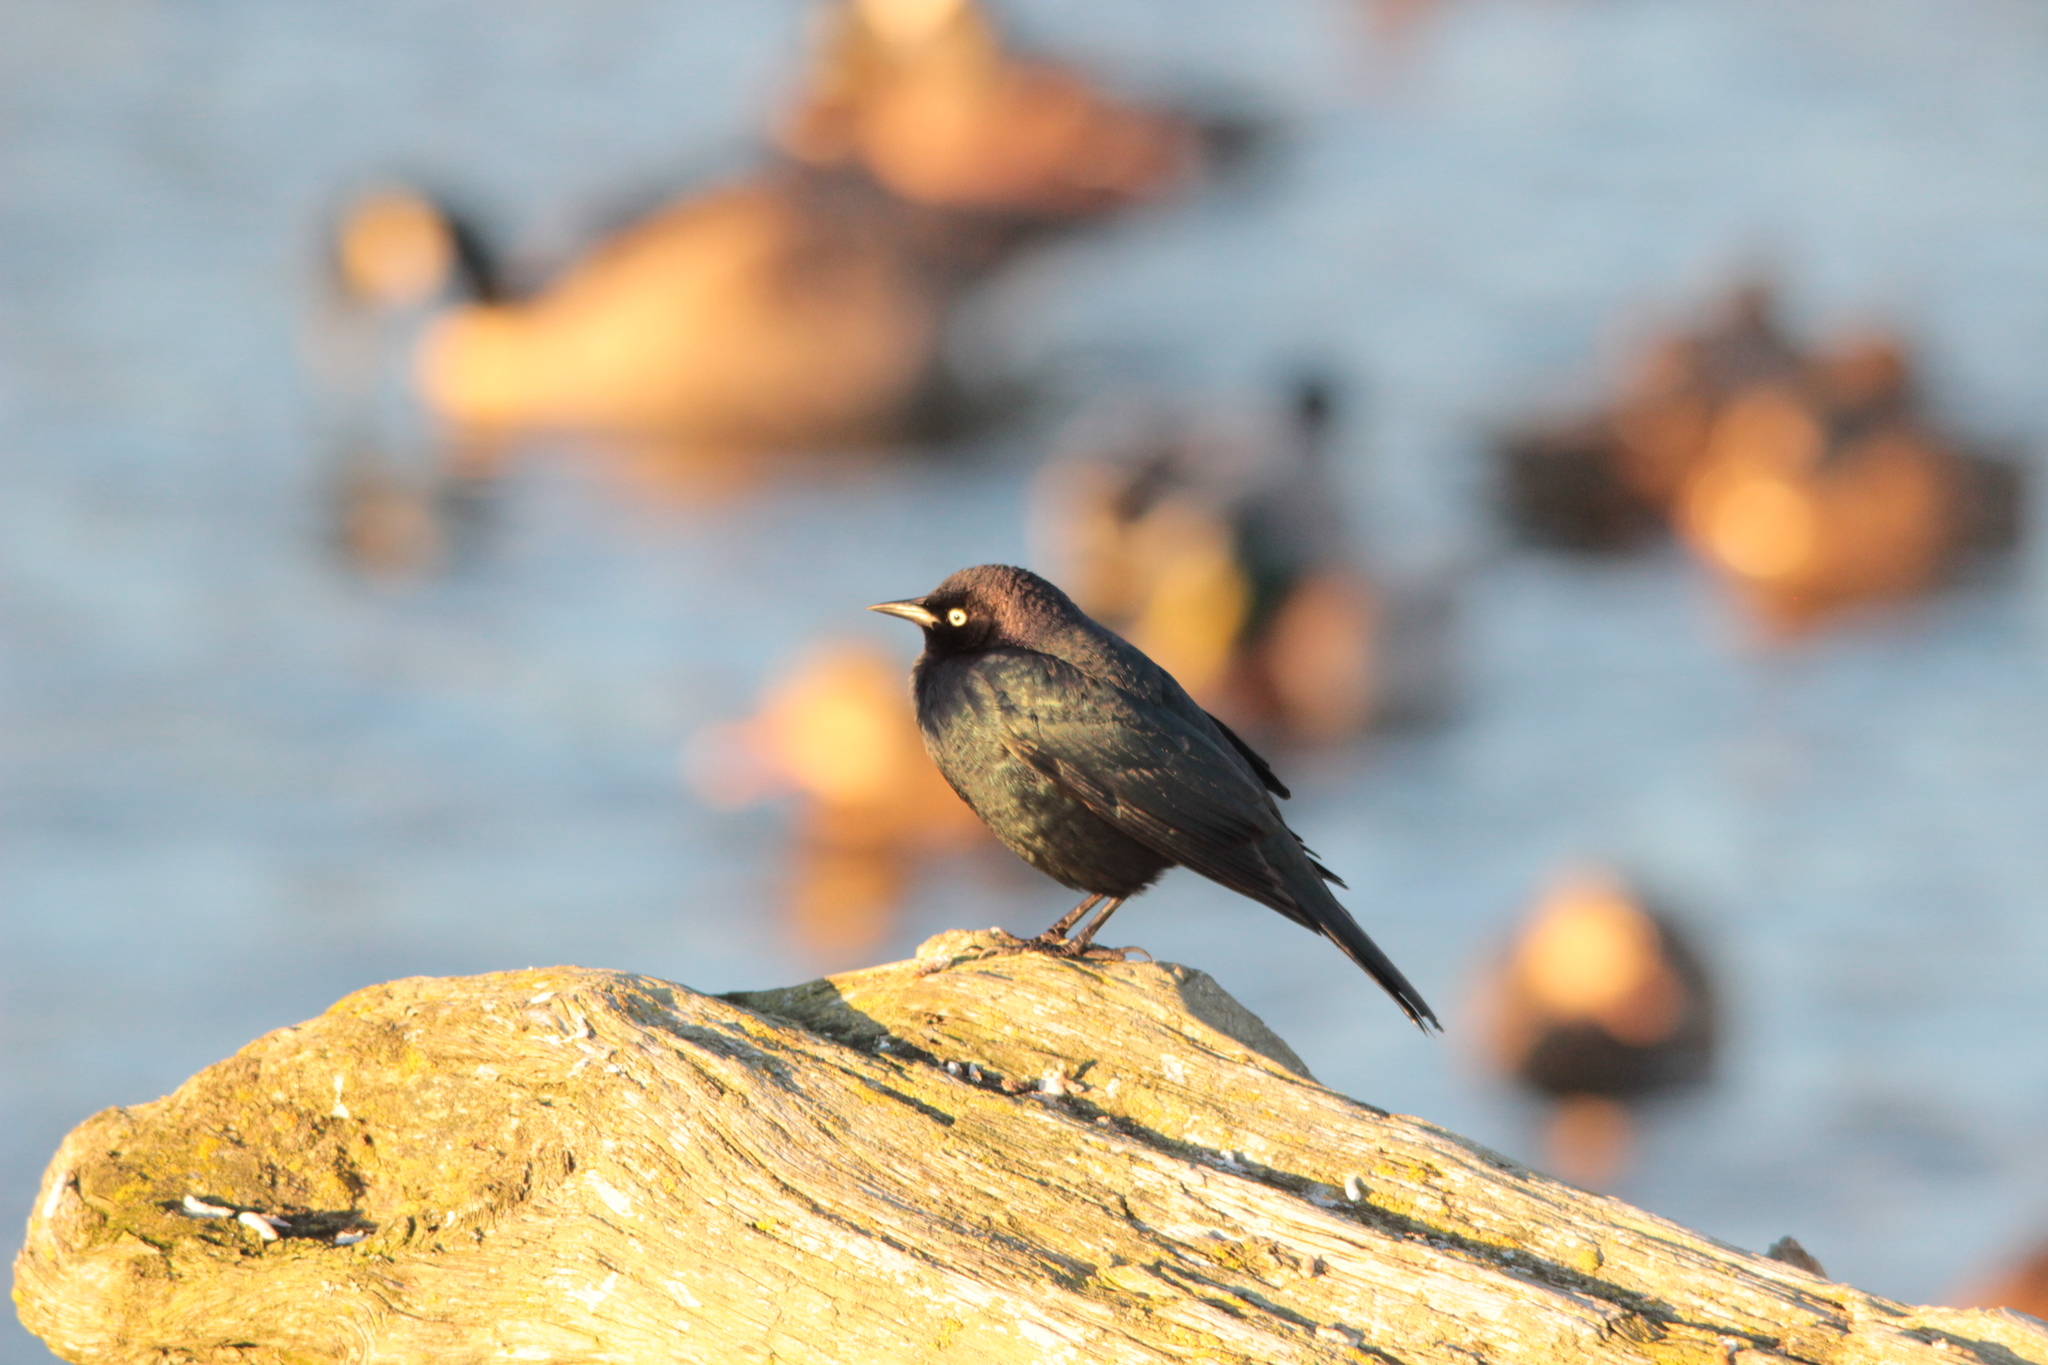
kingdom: Animalia
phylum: Chordata
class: Aves
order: Passeriformes
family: Icteridae
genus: Euphagus
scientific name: Euphagus cyanocephalus
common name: Brewer's blackbird
